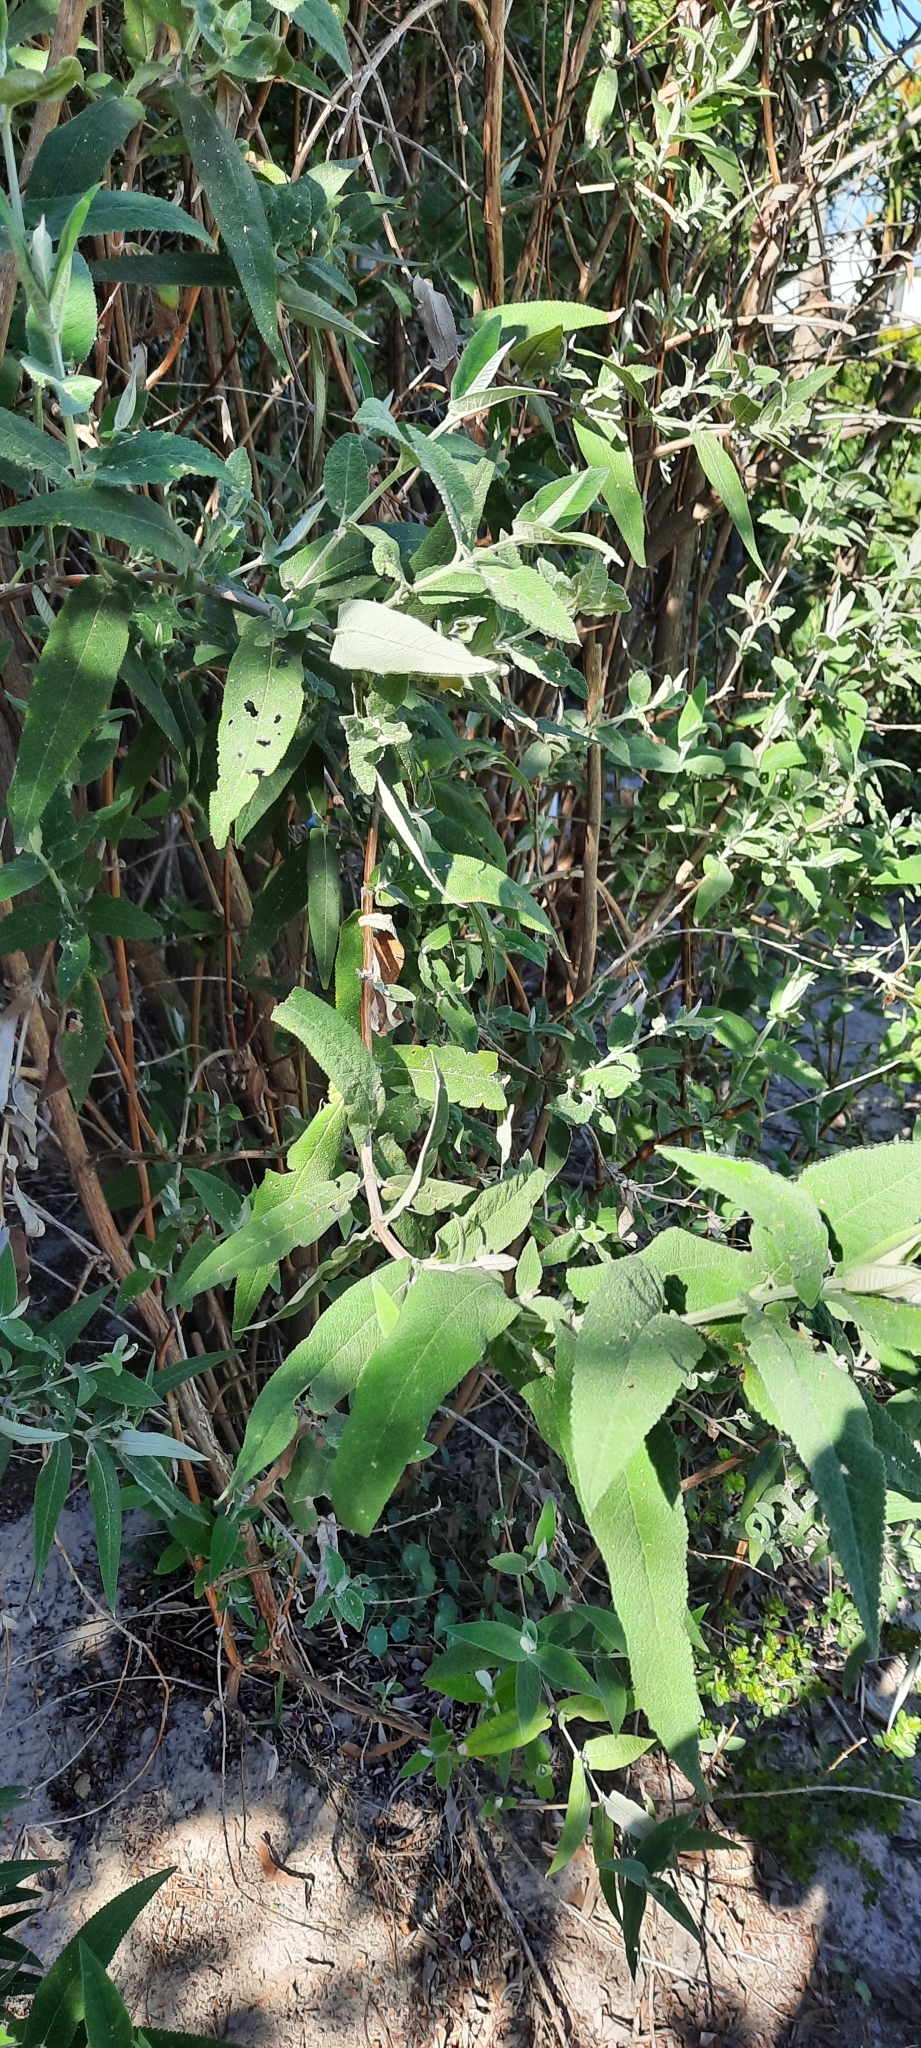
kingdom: Plantae
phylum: Tracheophyta
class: Magnoliopsida
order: Lamiales
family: Scrophulariaceae
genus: Buddleja
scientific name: Buddleja salviifolia
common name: Sagewood
